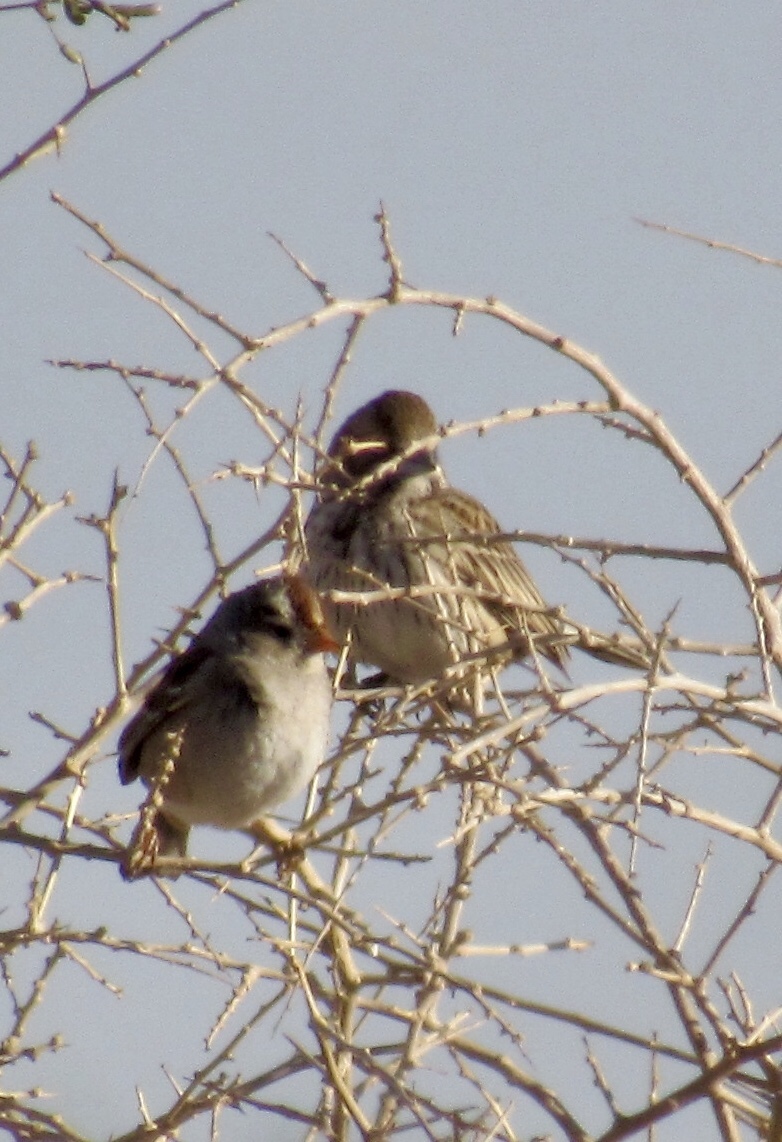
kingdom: Animalia
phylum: Chordata
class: Aves
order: Passeriformes
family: Passerellidae
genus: Zonotrichia
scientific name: Zonotrichia leucophrys
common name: White-crowned sparrow
